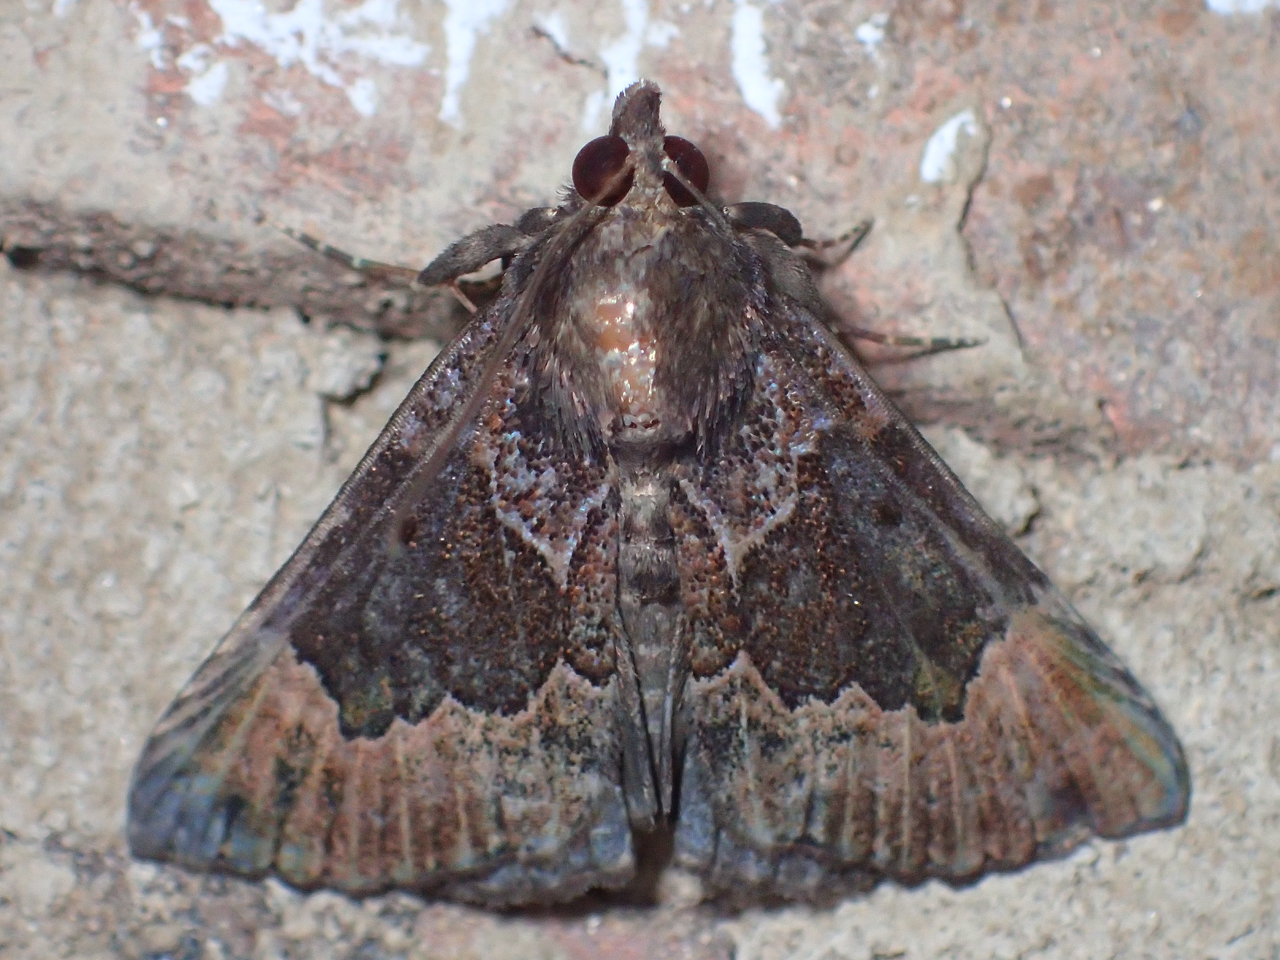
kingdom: Animalia
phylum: Arthropoda
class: Insecta
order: Lepidoptera
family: Erebidae
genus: Hypena
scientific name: Hypena palparia
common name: Mottled bomolocha moth
